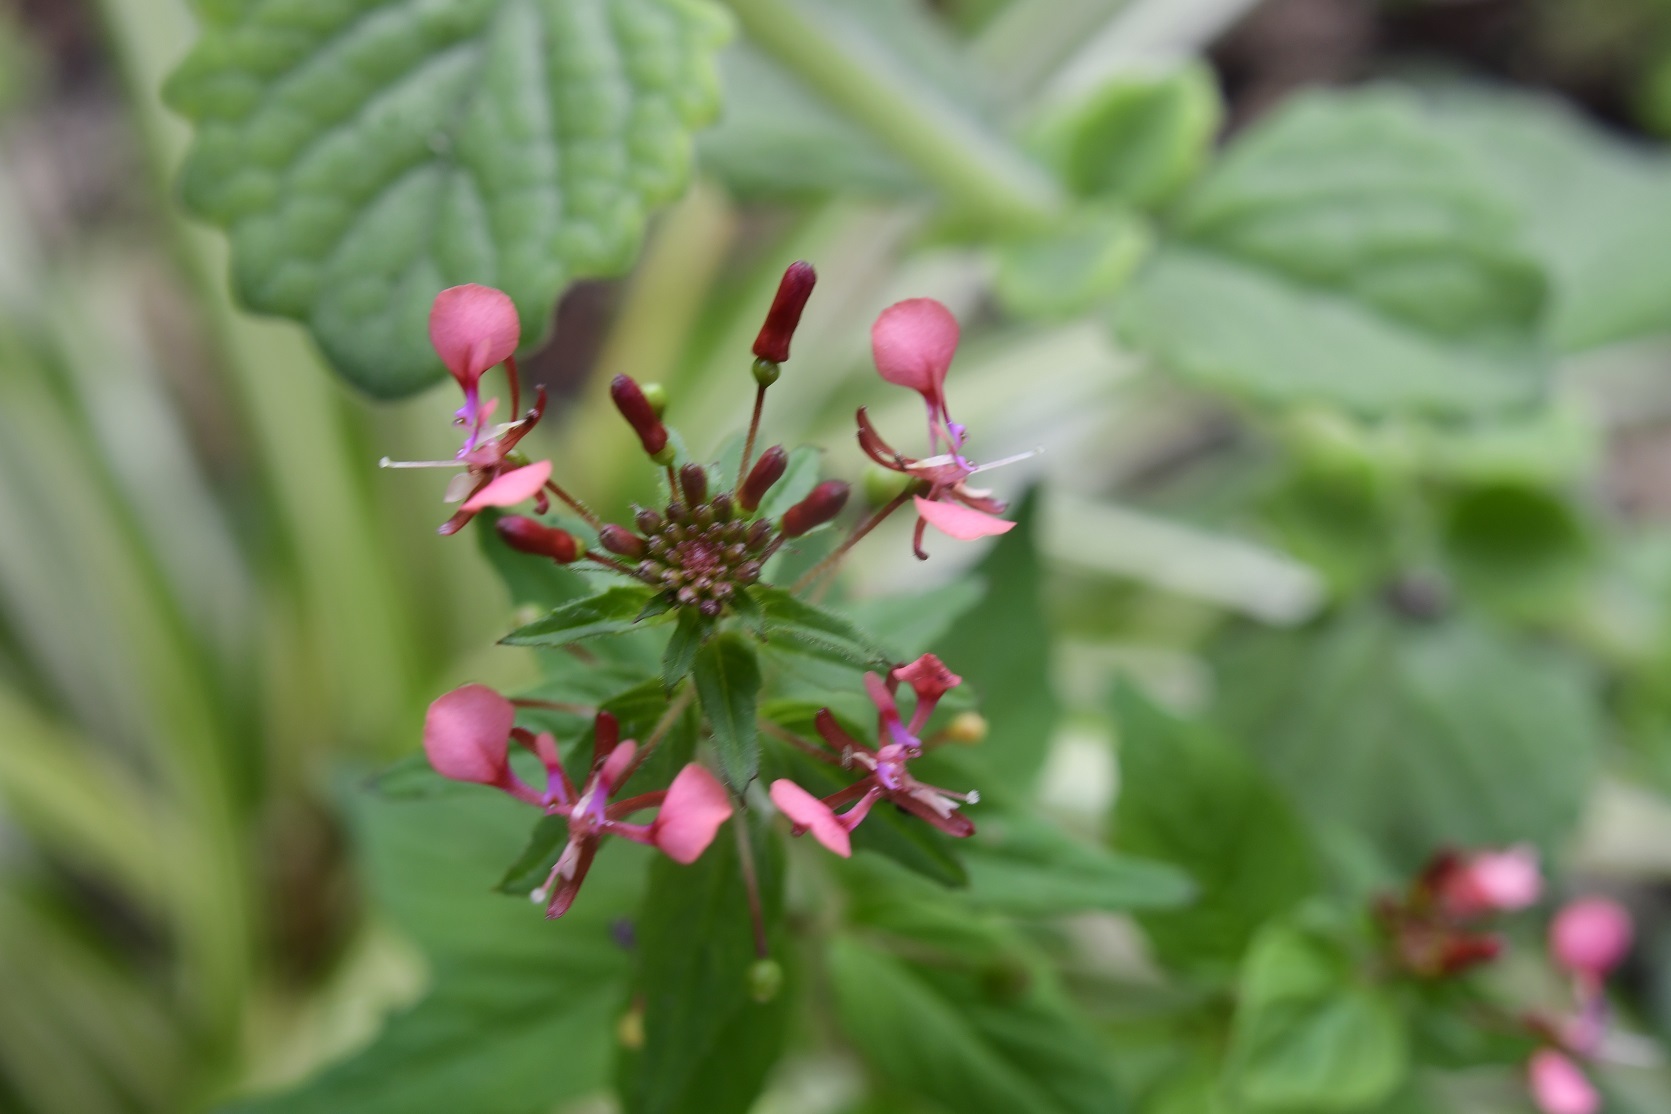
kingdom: Plantae
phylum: Tracheophyta
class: Magnoliopsida
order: Myrtales
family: Onagraceae
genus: Lopezia
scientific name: Lopezia racemosa
